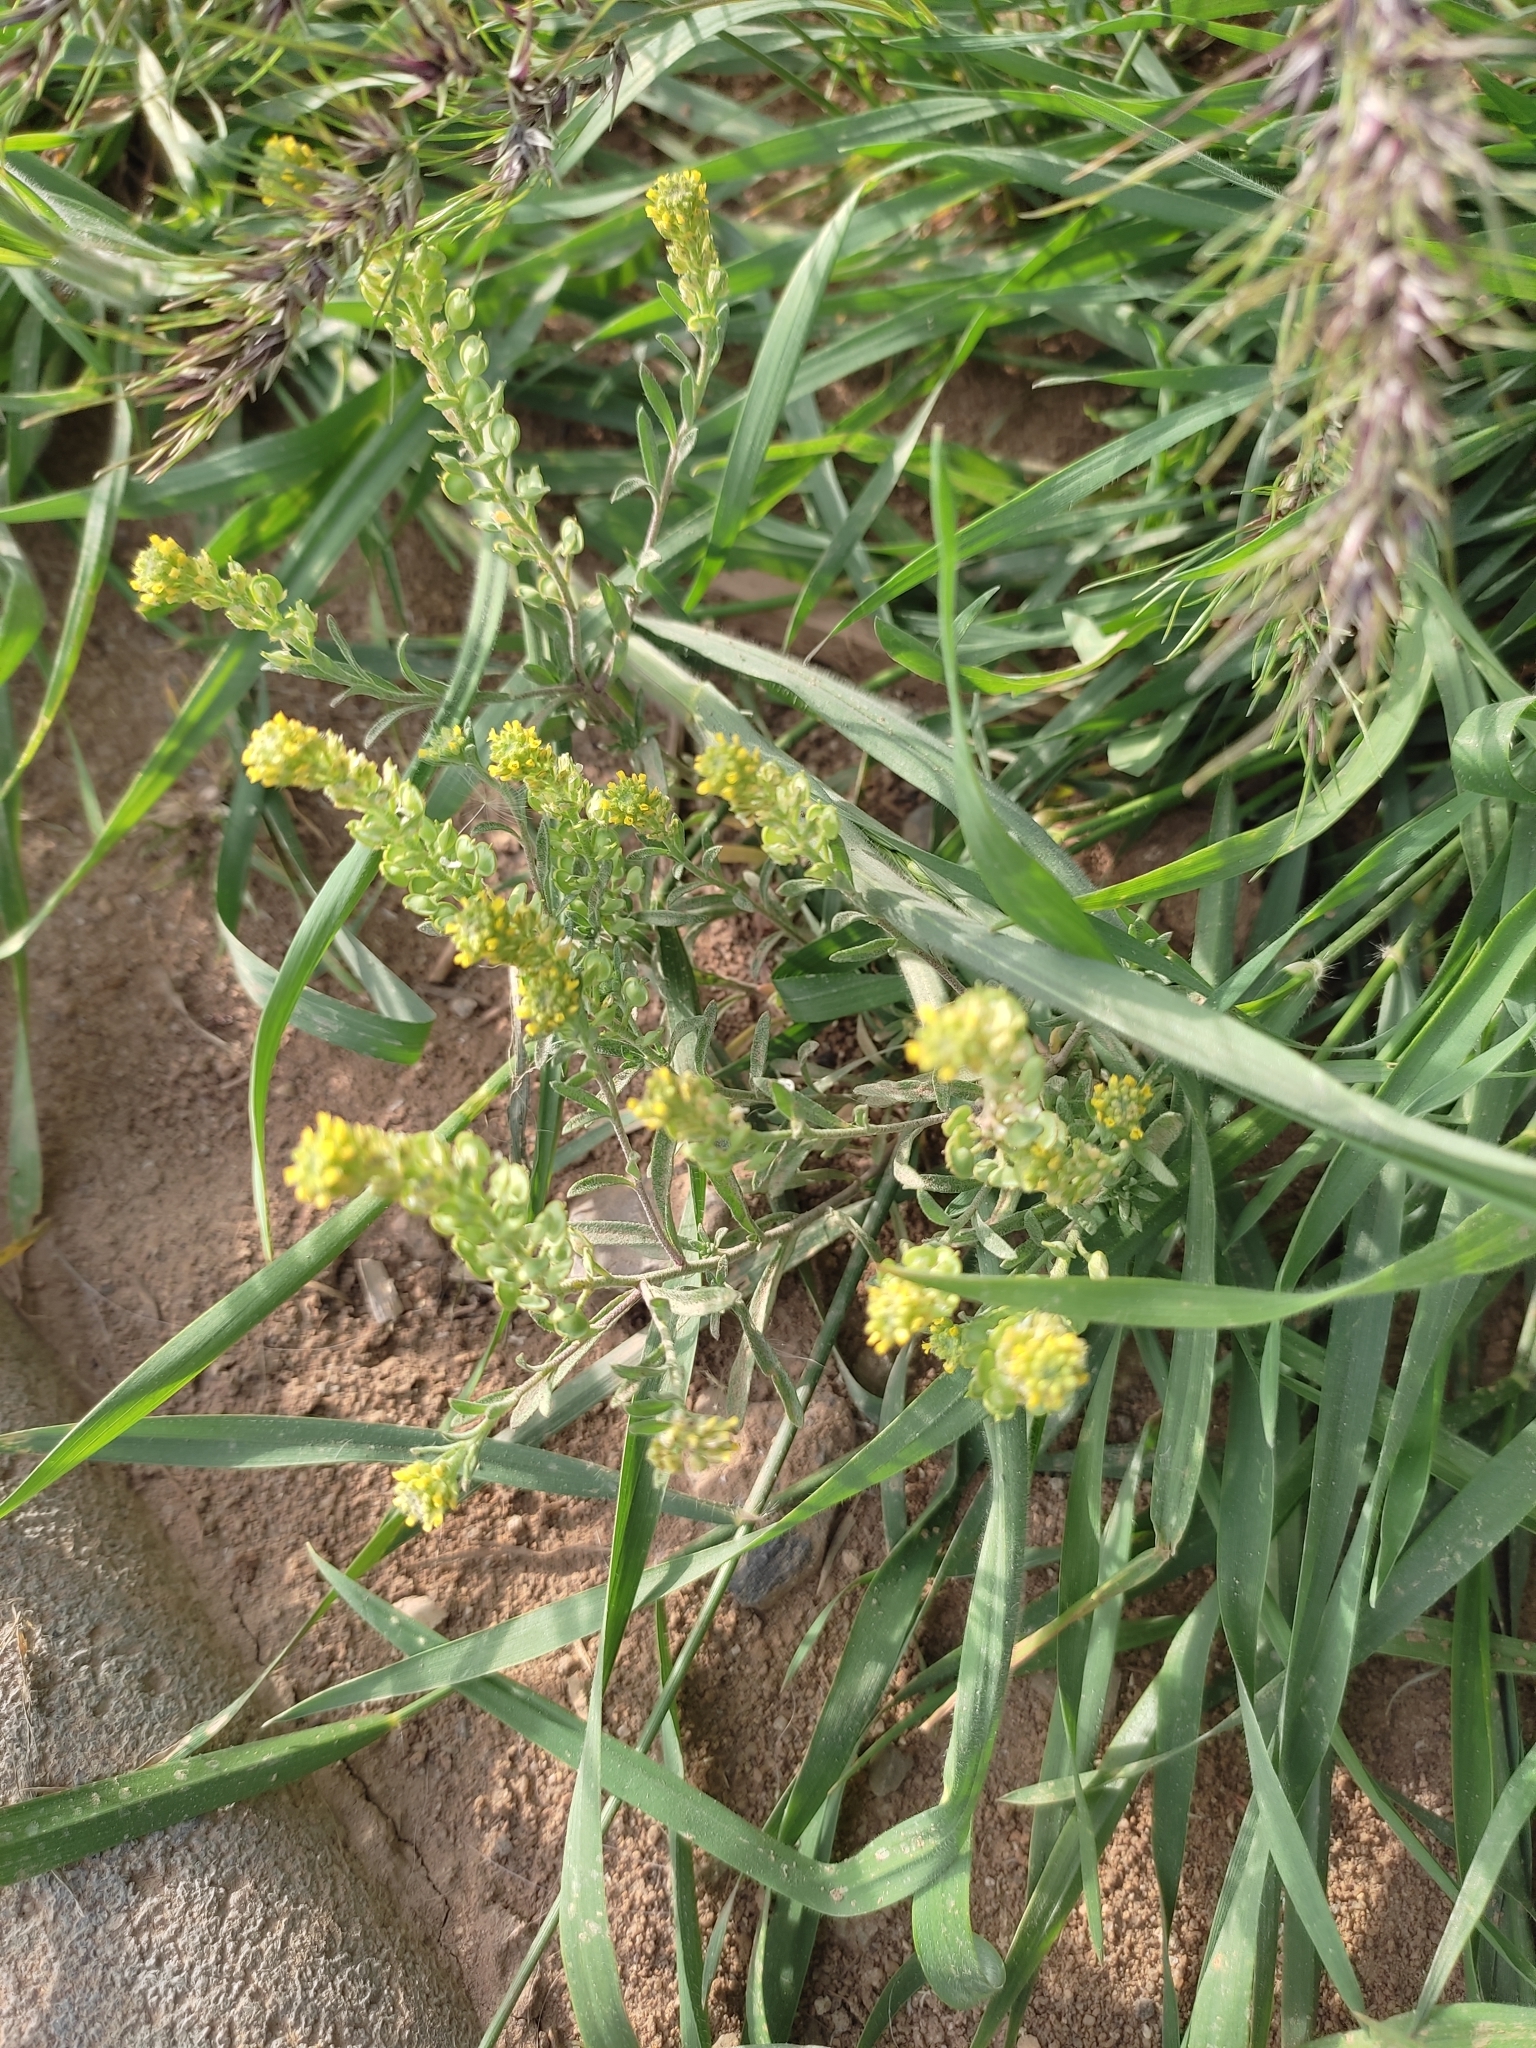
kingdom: Plantae
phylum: Tracheophyta
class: Magnoliopsida
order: Brassicales
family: Brassicaceae
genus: Alyssum
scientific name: Alyssum turkestanicum
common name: Desert alyssum
